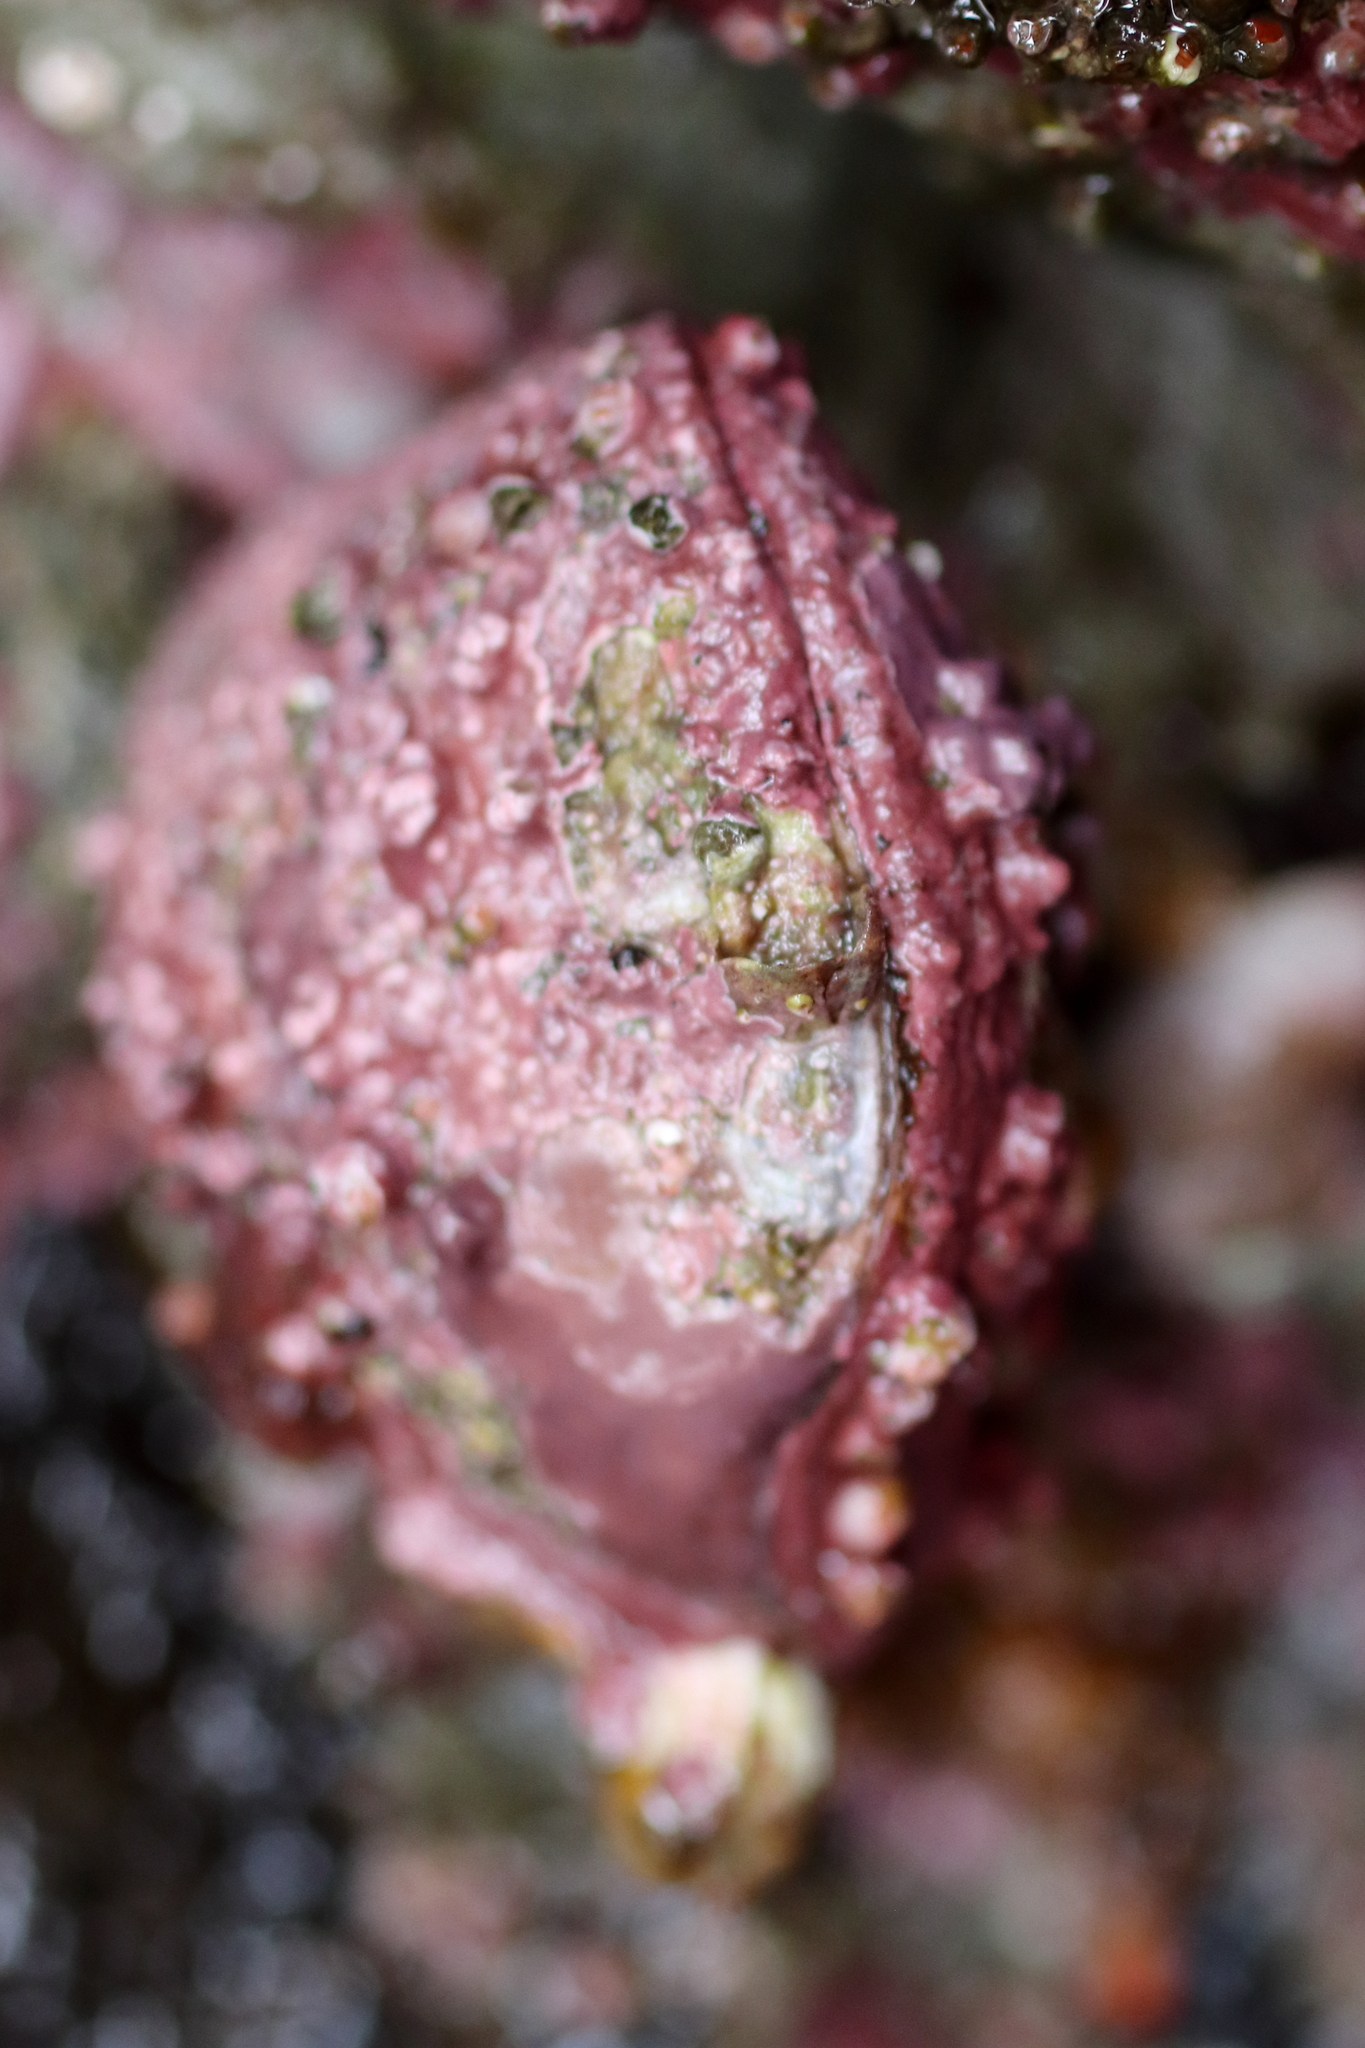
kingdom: Animalia
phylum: Brachiopoda
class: Rhynchonellata
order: Terebratulida
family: Terebrataliidae
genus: Terebratalia
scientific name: Terebratalia transversa
